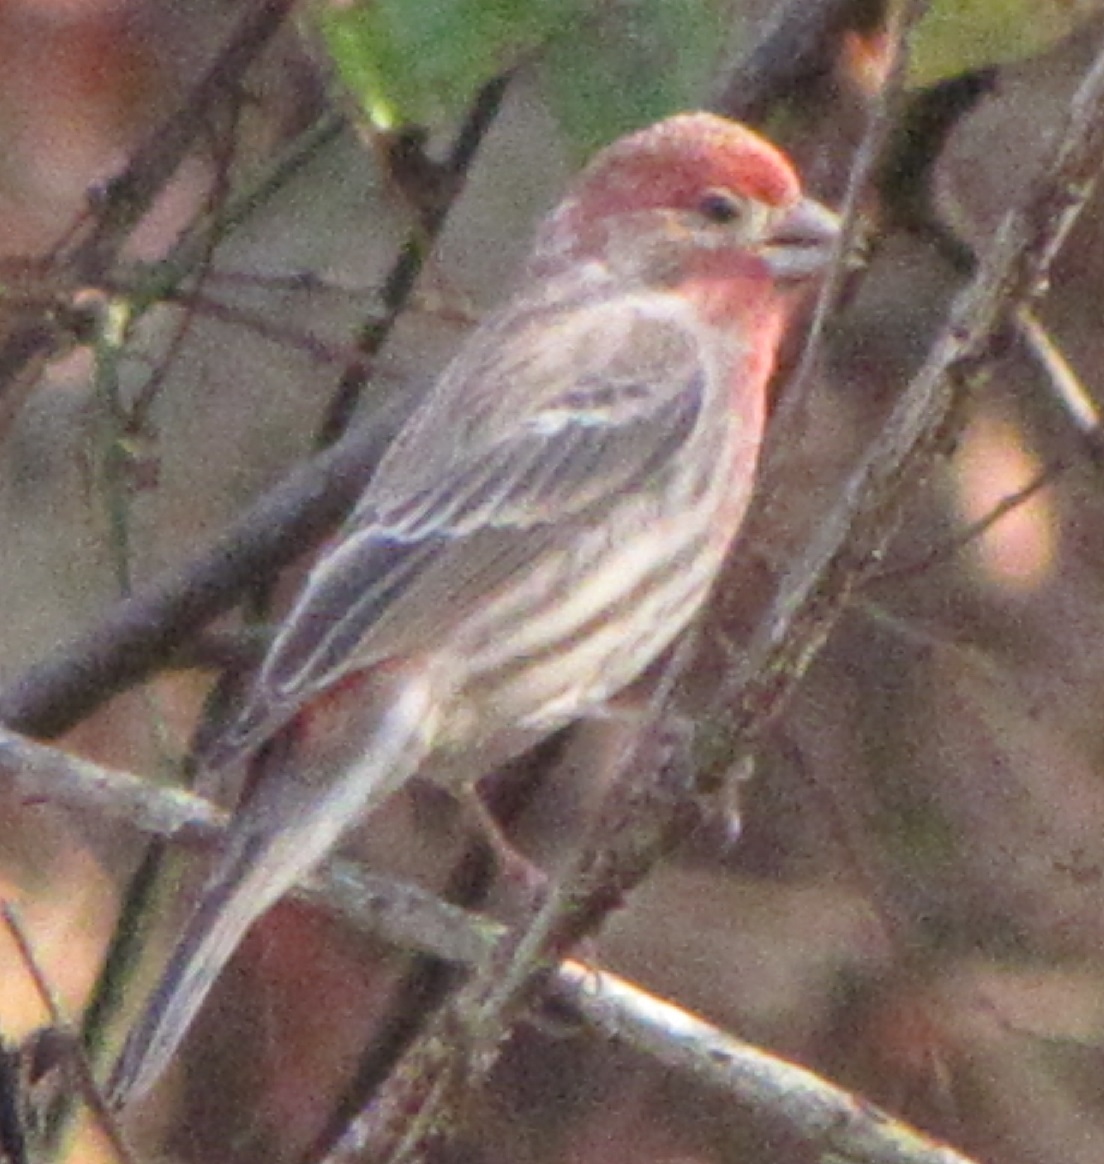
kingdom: Animalia
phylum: Chordata
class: Aves
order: Passeriformes
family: Fringillidae
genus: Haemorhous
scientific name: Haemorhous mexicanus
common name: House finch
